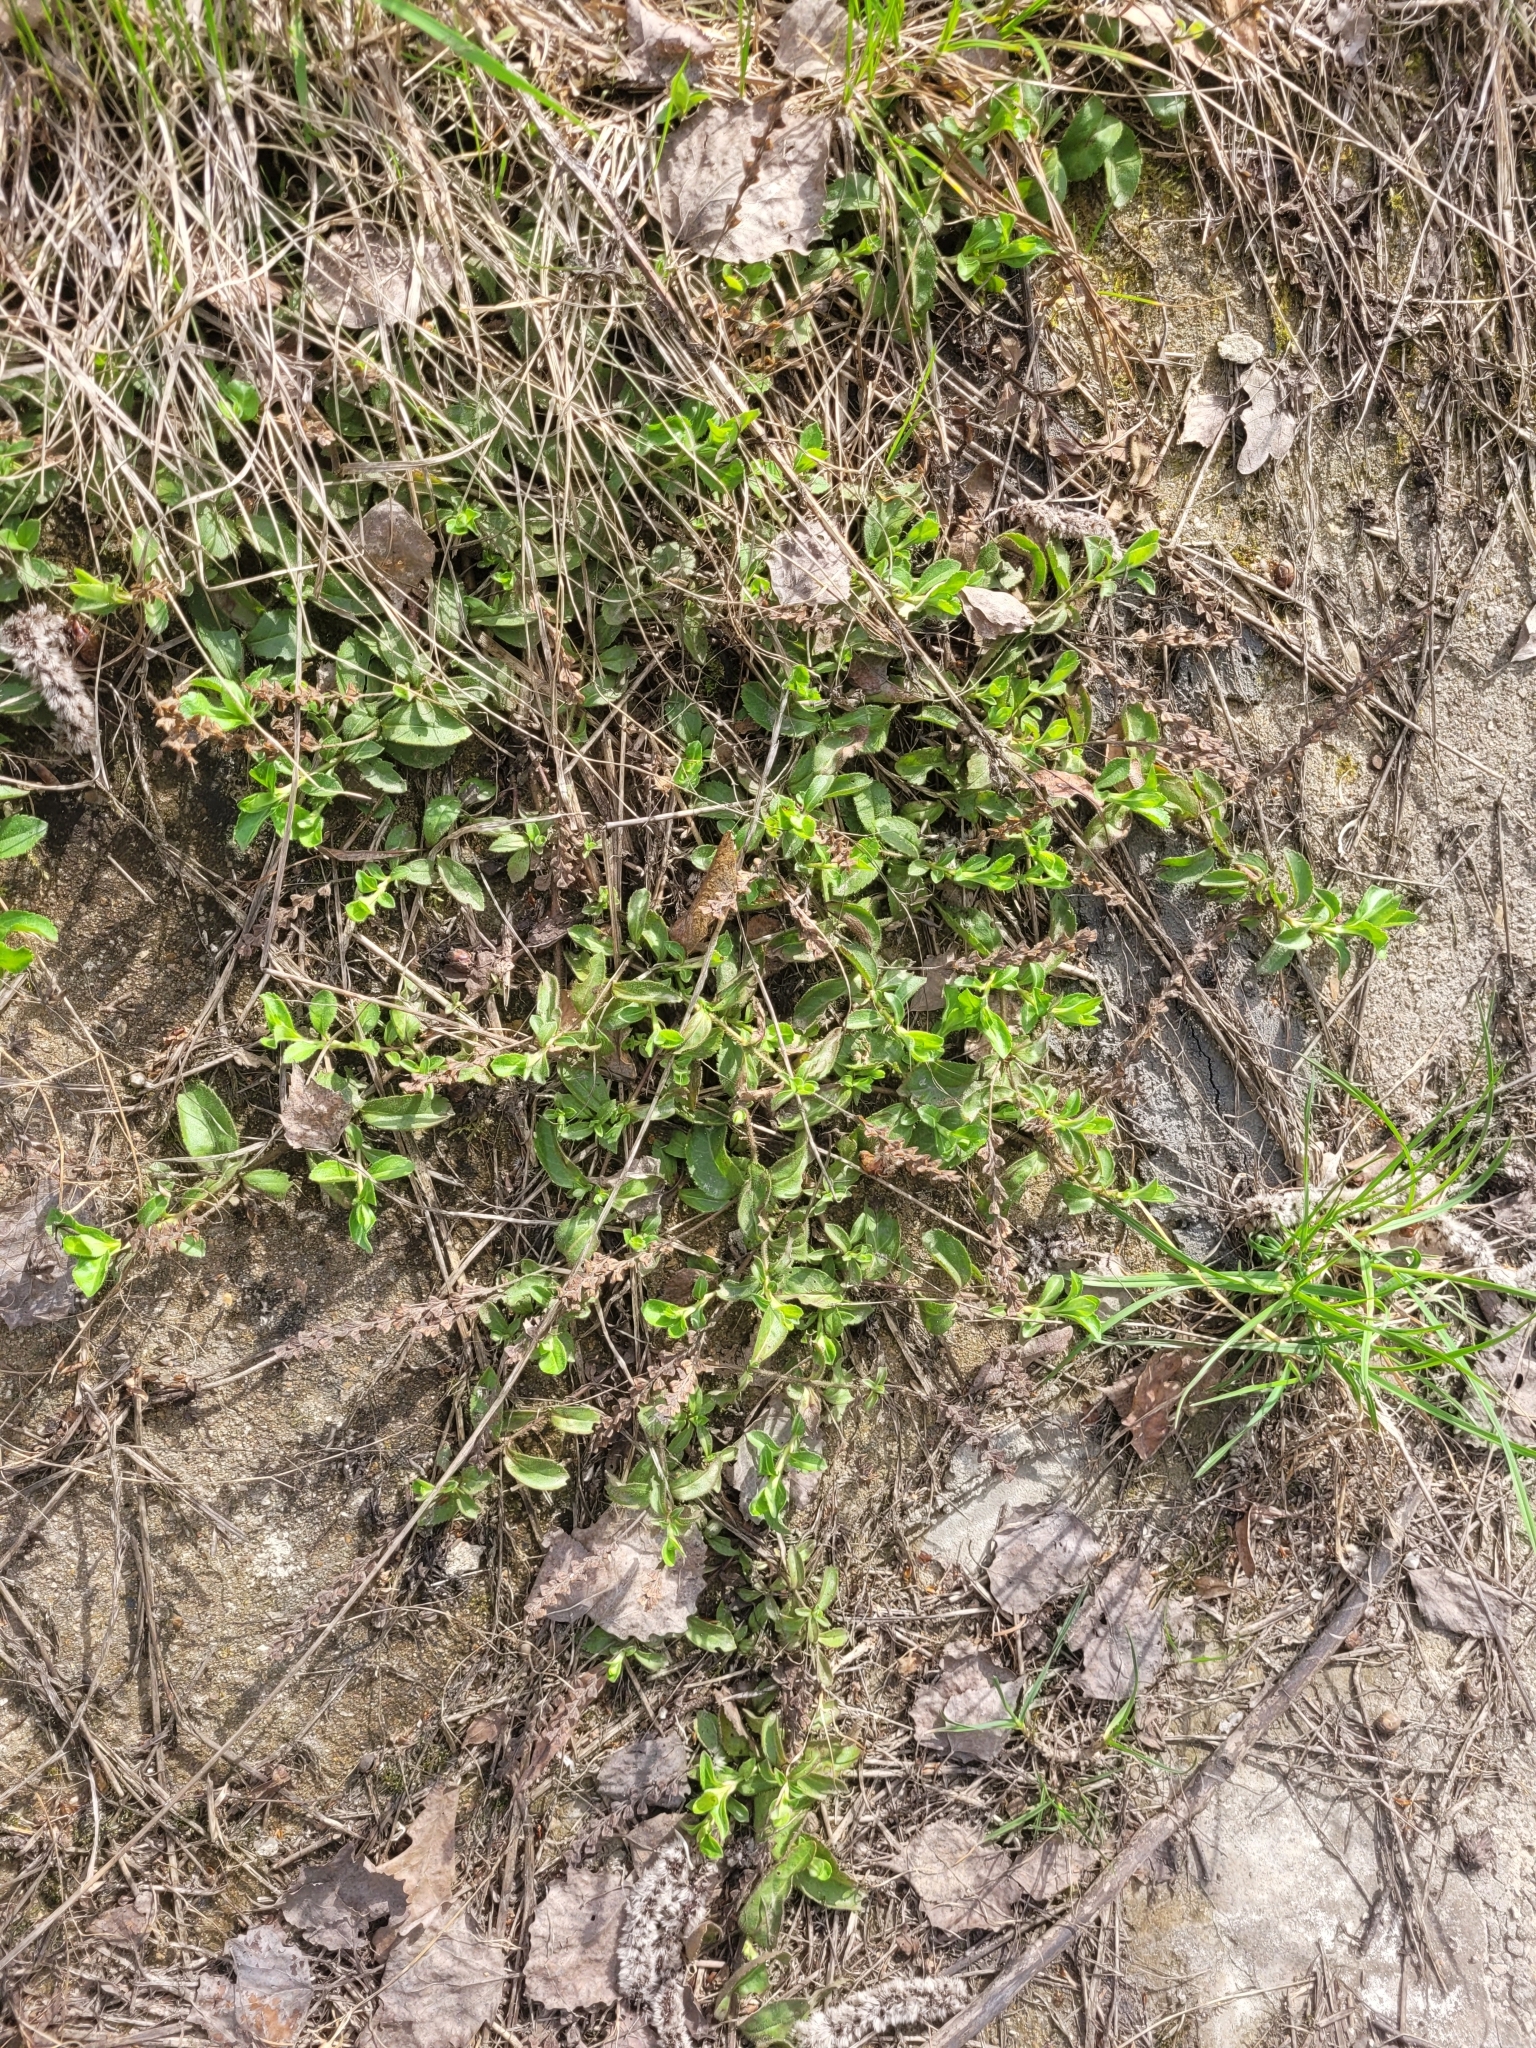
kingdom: Plantae
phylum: Tracheophyta
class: Magnoliopsida
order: Lamiales
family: Plantaginaceae
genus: Veronica
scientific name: Veronica officinalis
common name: Common speedwell
